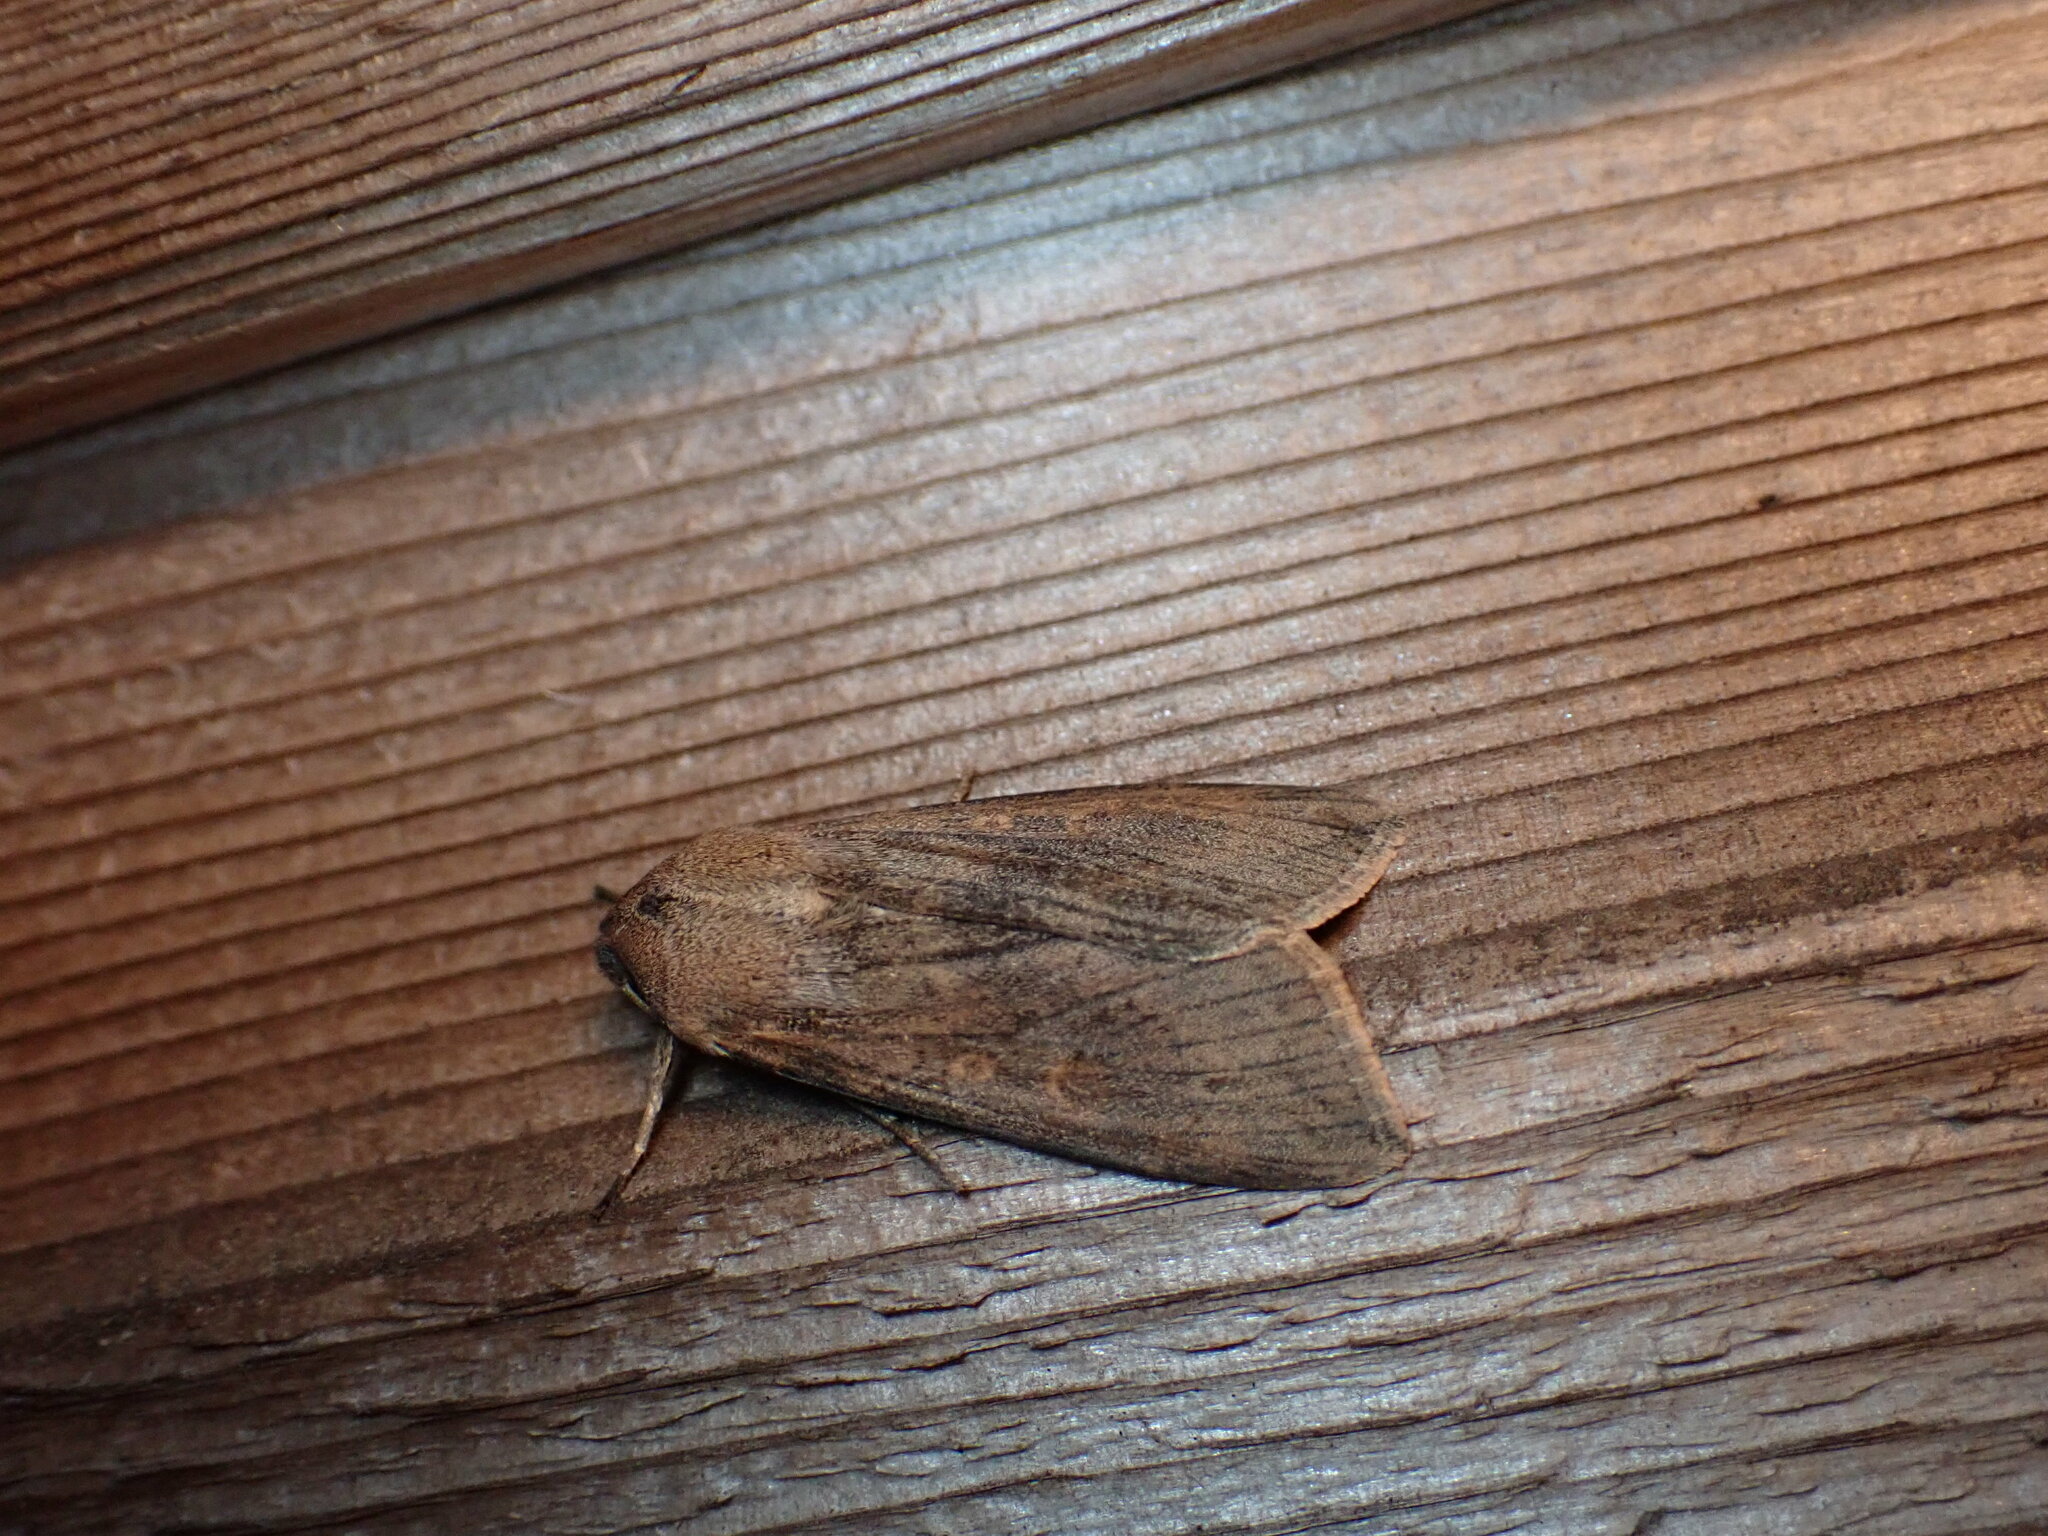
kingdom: Animalia
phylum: Arthropoda
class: Insecta
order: Lepidoptera
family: Noctuidae
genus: Mythimna
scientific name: Mythimna separata
